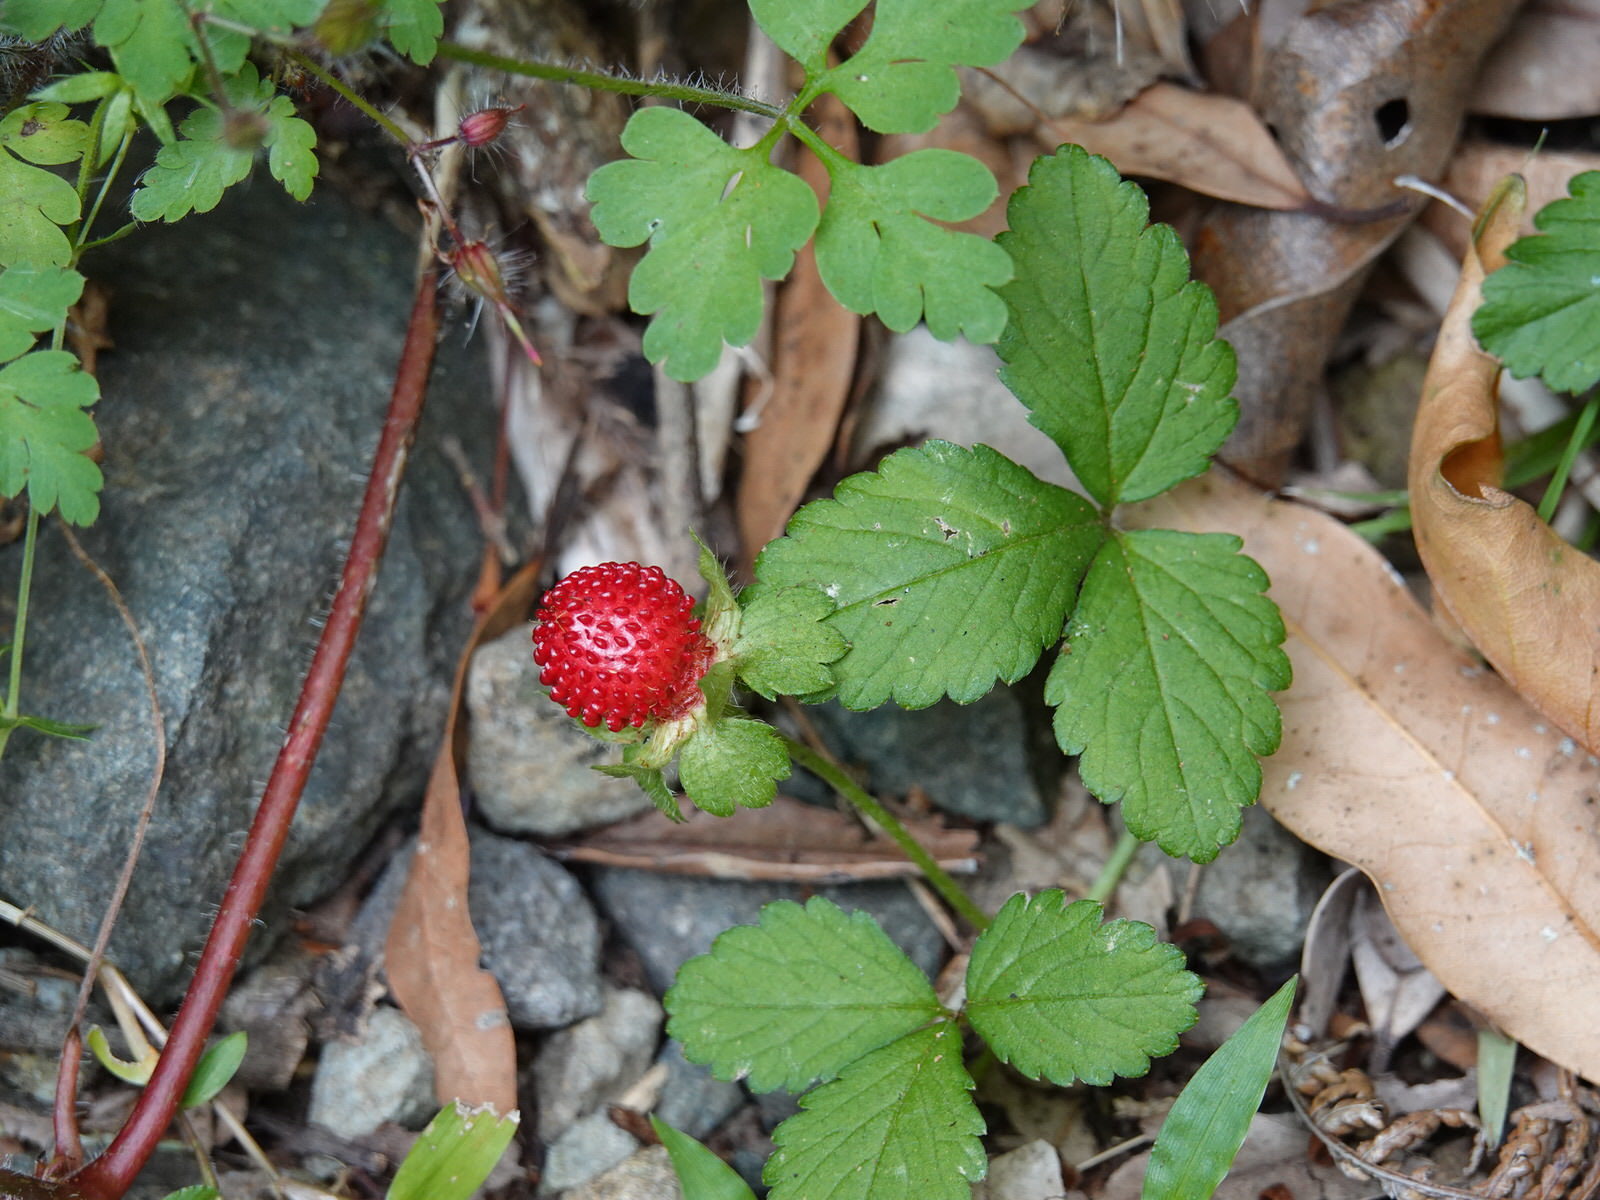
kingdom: Plantae
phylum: Tracheophyta
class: Magnoliopsida
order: Rosales
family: Rosaceae
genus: Potentilla
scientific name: Potentilla indica
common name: Yellow-flowered strawberry
